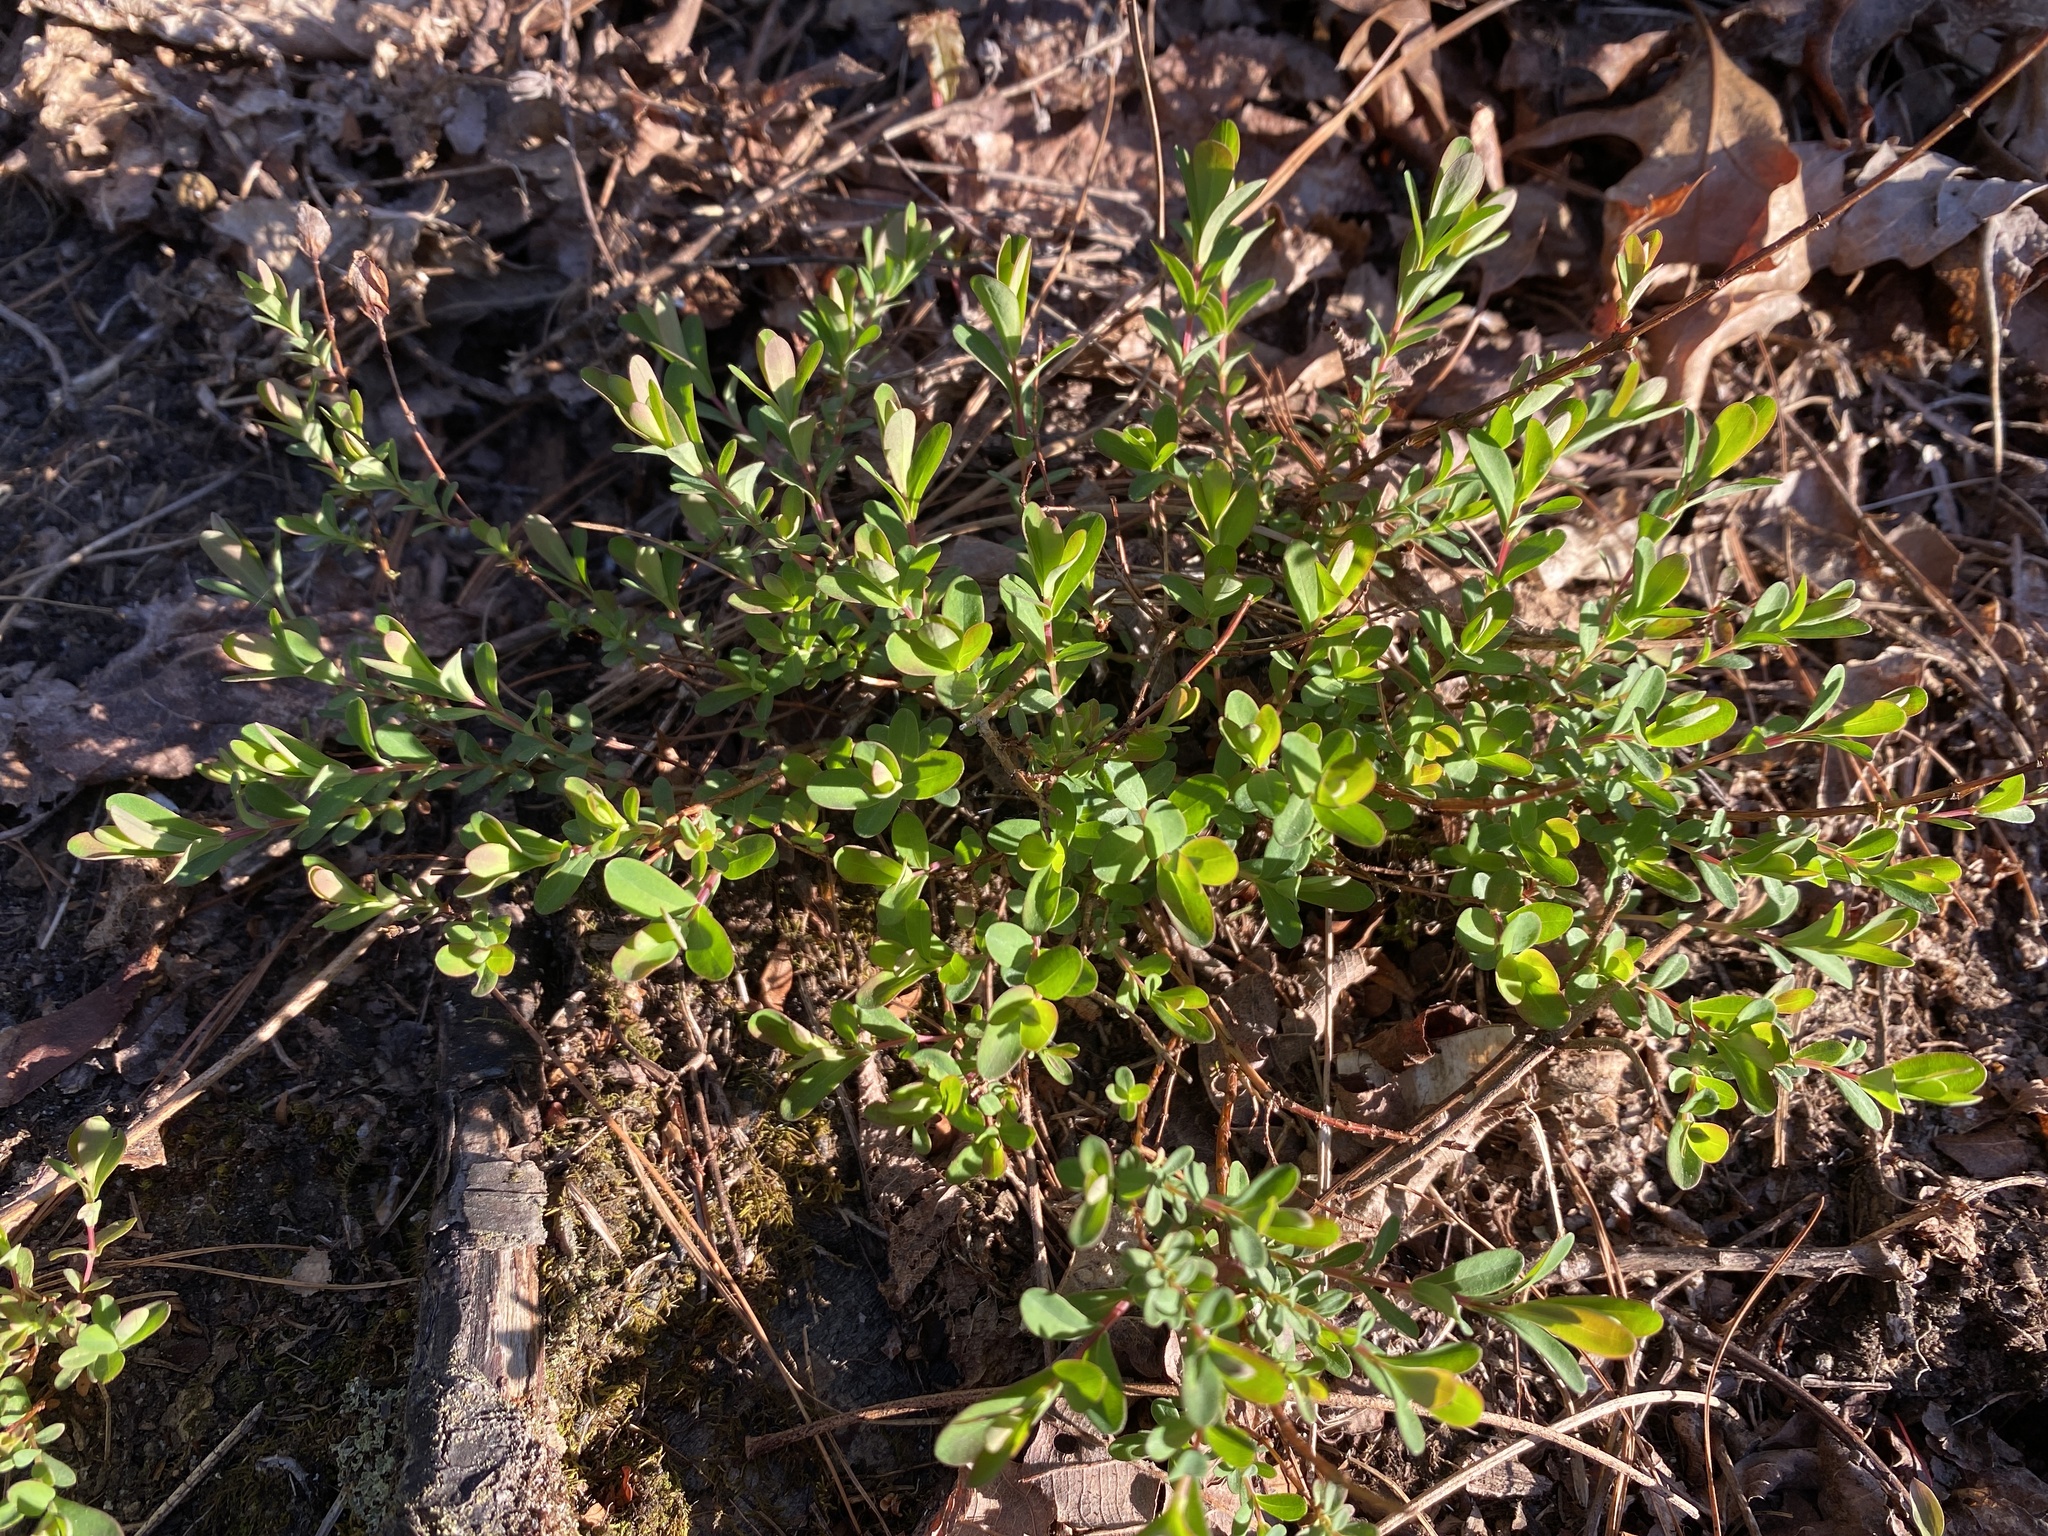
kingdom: Plantae
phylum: Tracheophyta
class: Magnoliopsida
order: Malpighiales
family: Hypericaceae
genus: Hypericum
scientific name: Hypericum hypericoides
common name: St. andrew's cross
